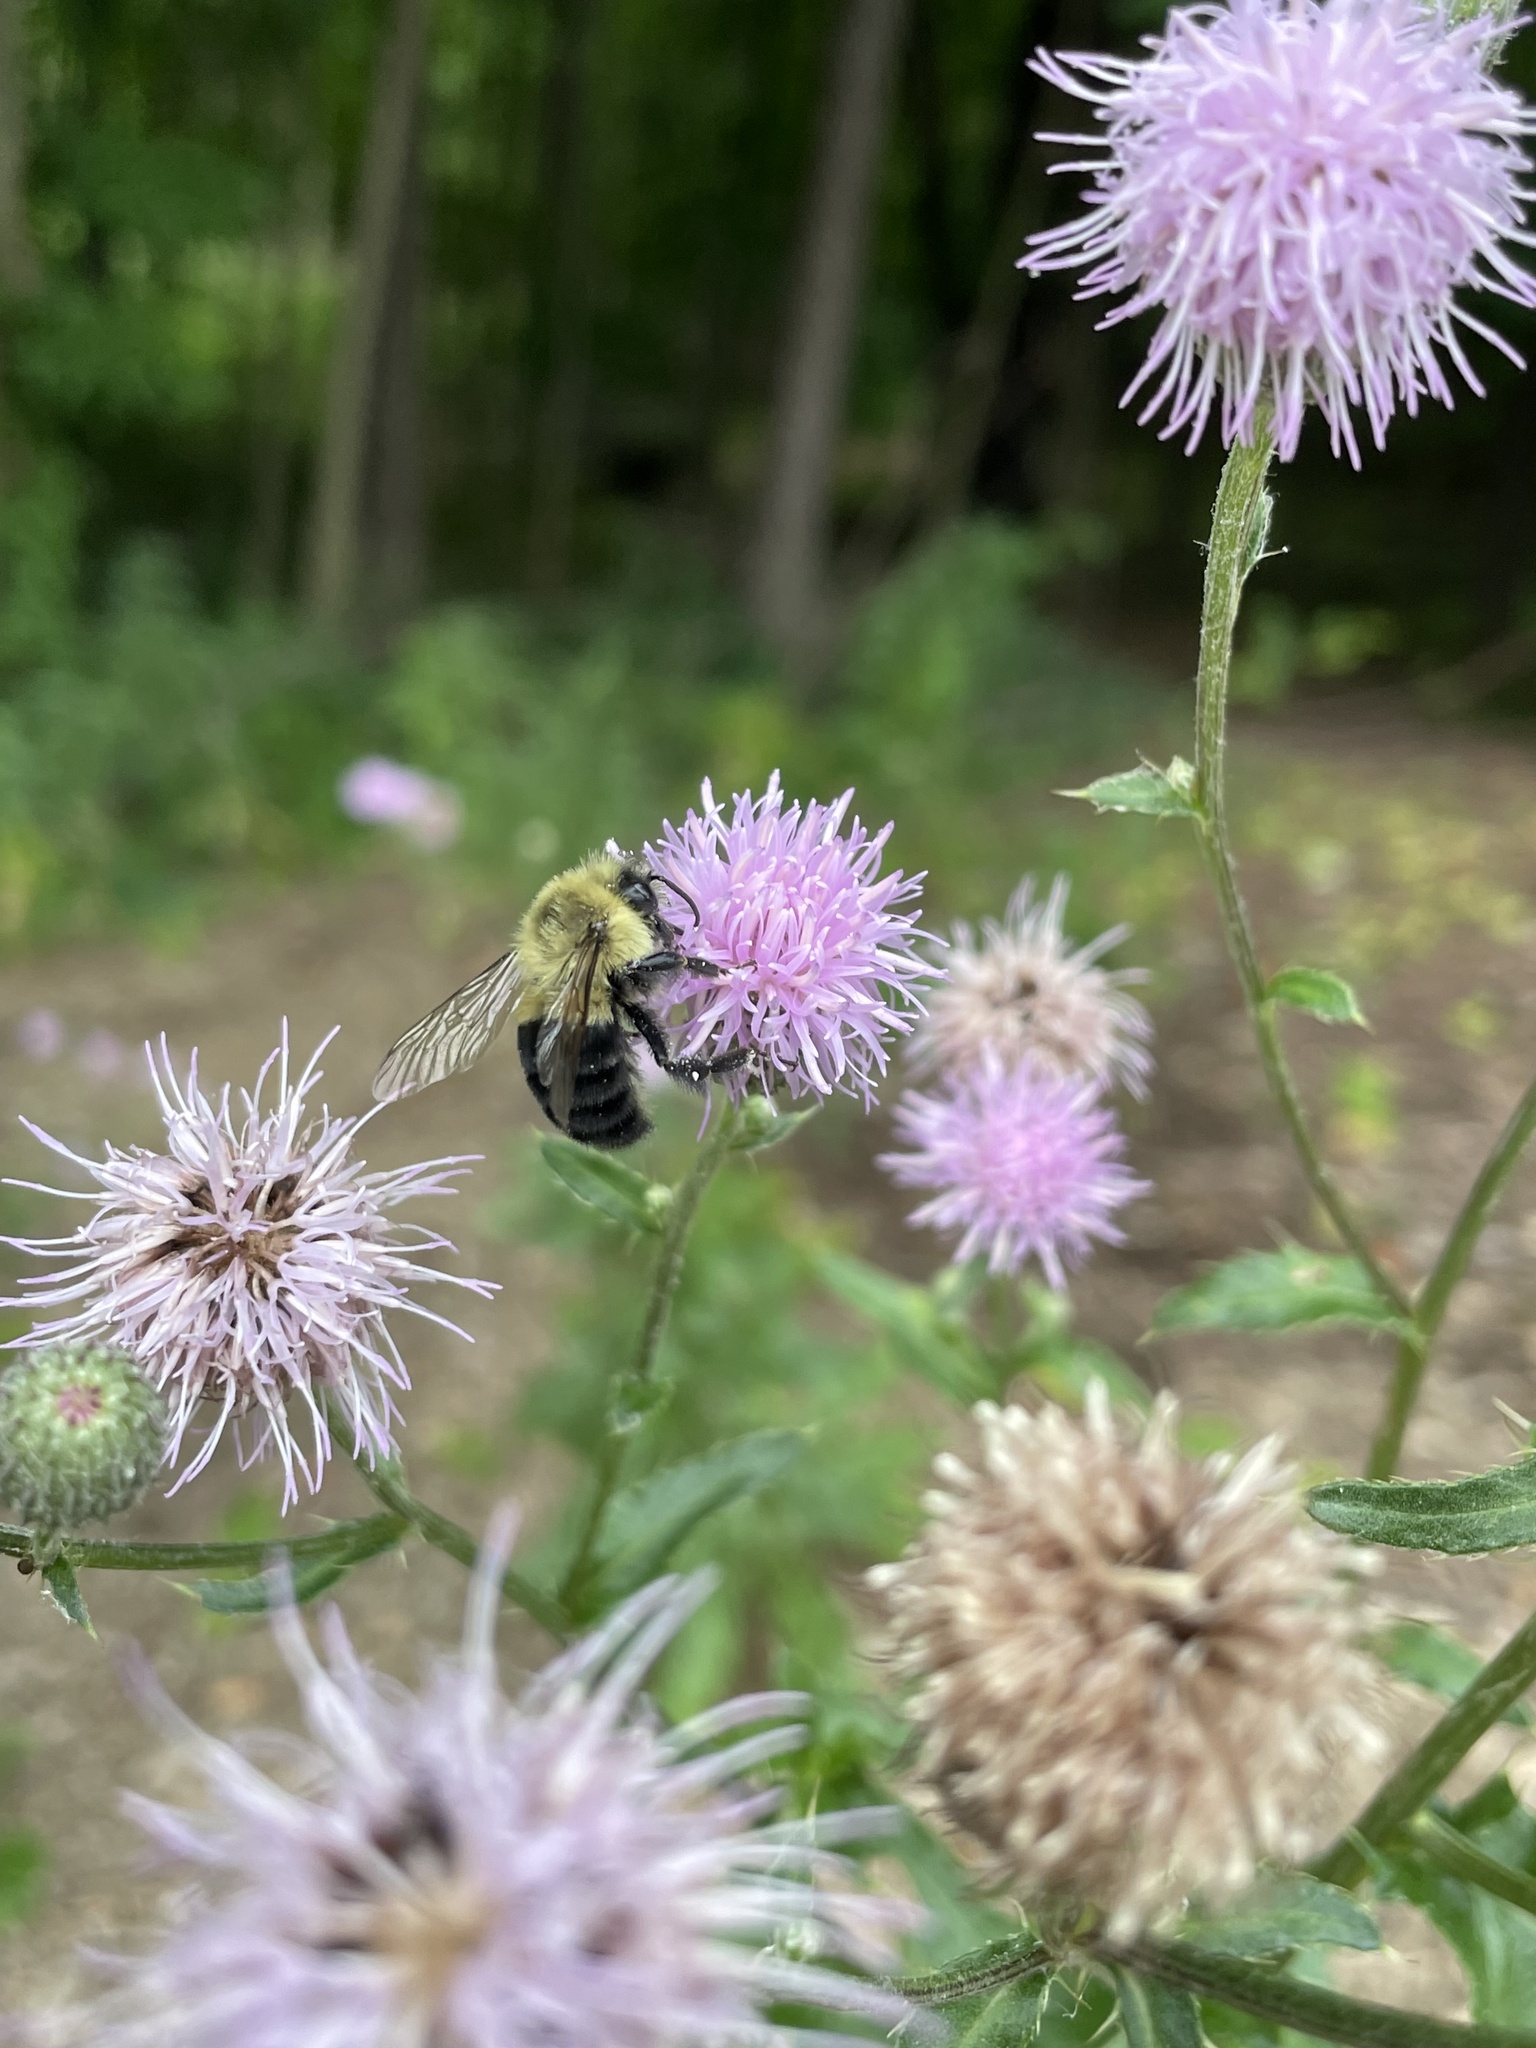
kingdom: Animalia
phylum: Arthropoda
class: Insecta
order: Hymenoptera
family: Apidae
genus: Bombus
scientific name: Bombus impatiens
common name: Common eastern bumble bee
